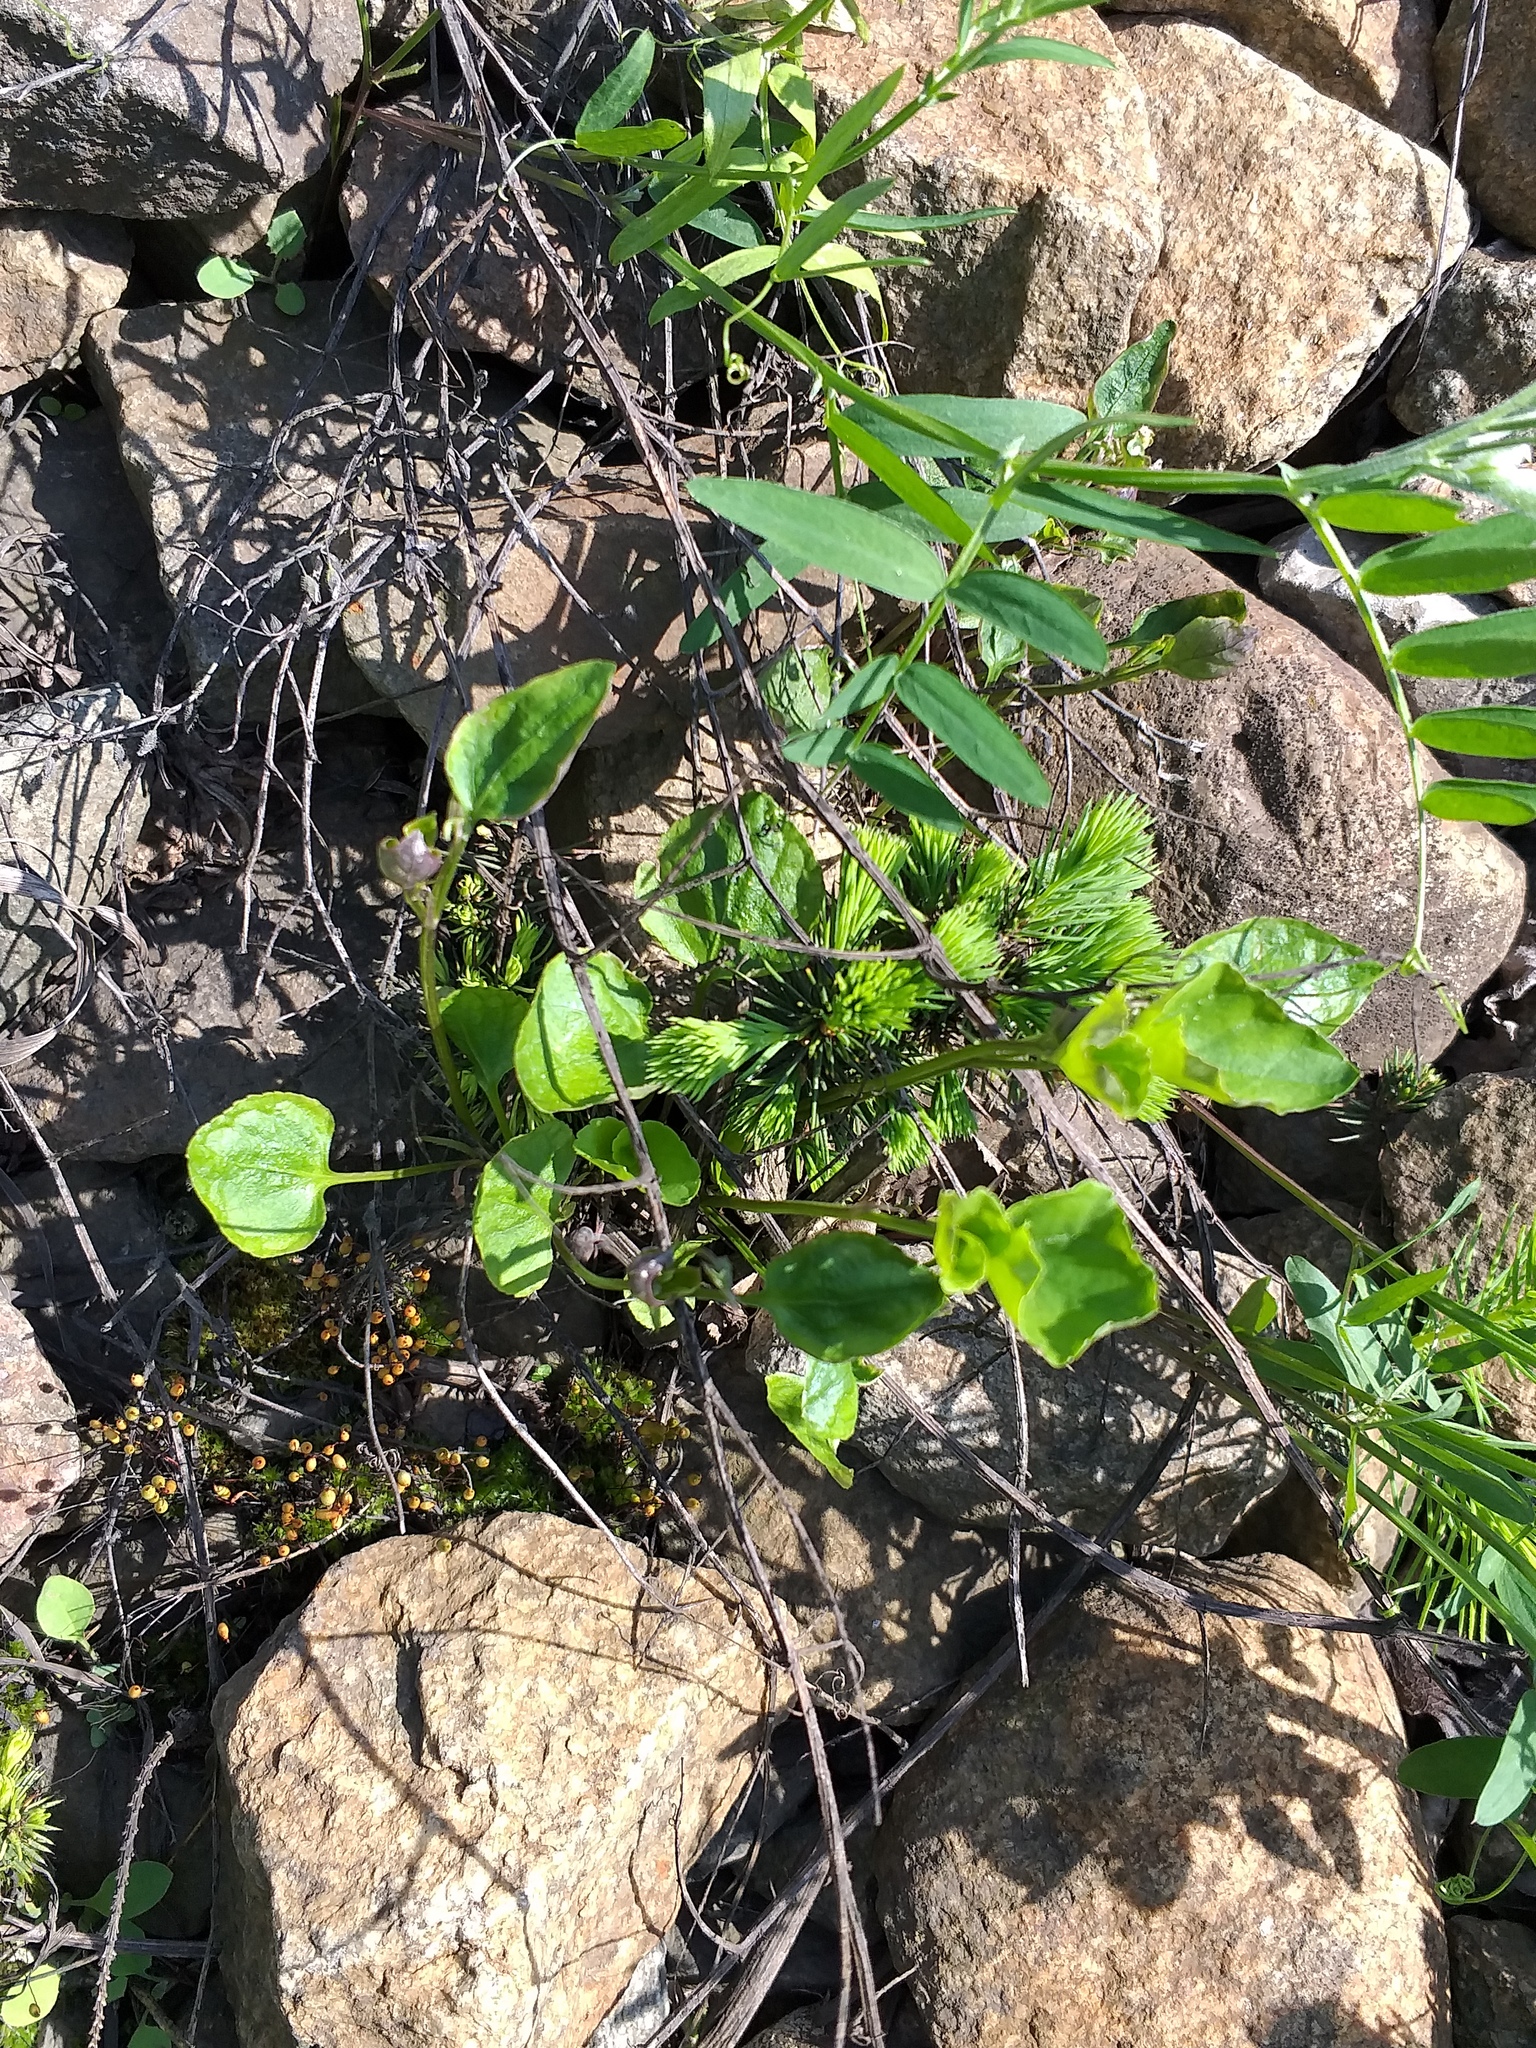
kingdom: Plantae
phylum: Tracheophyta
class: Magnoliopsida
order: Malpighiales
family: Violaceae
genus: Viola
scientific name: Viola riviniana
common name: Common dog-violet
